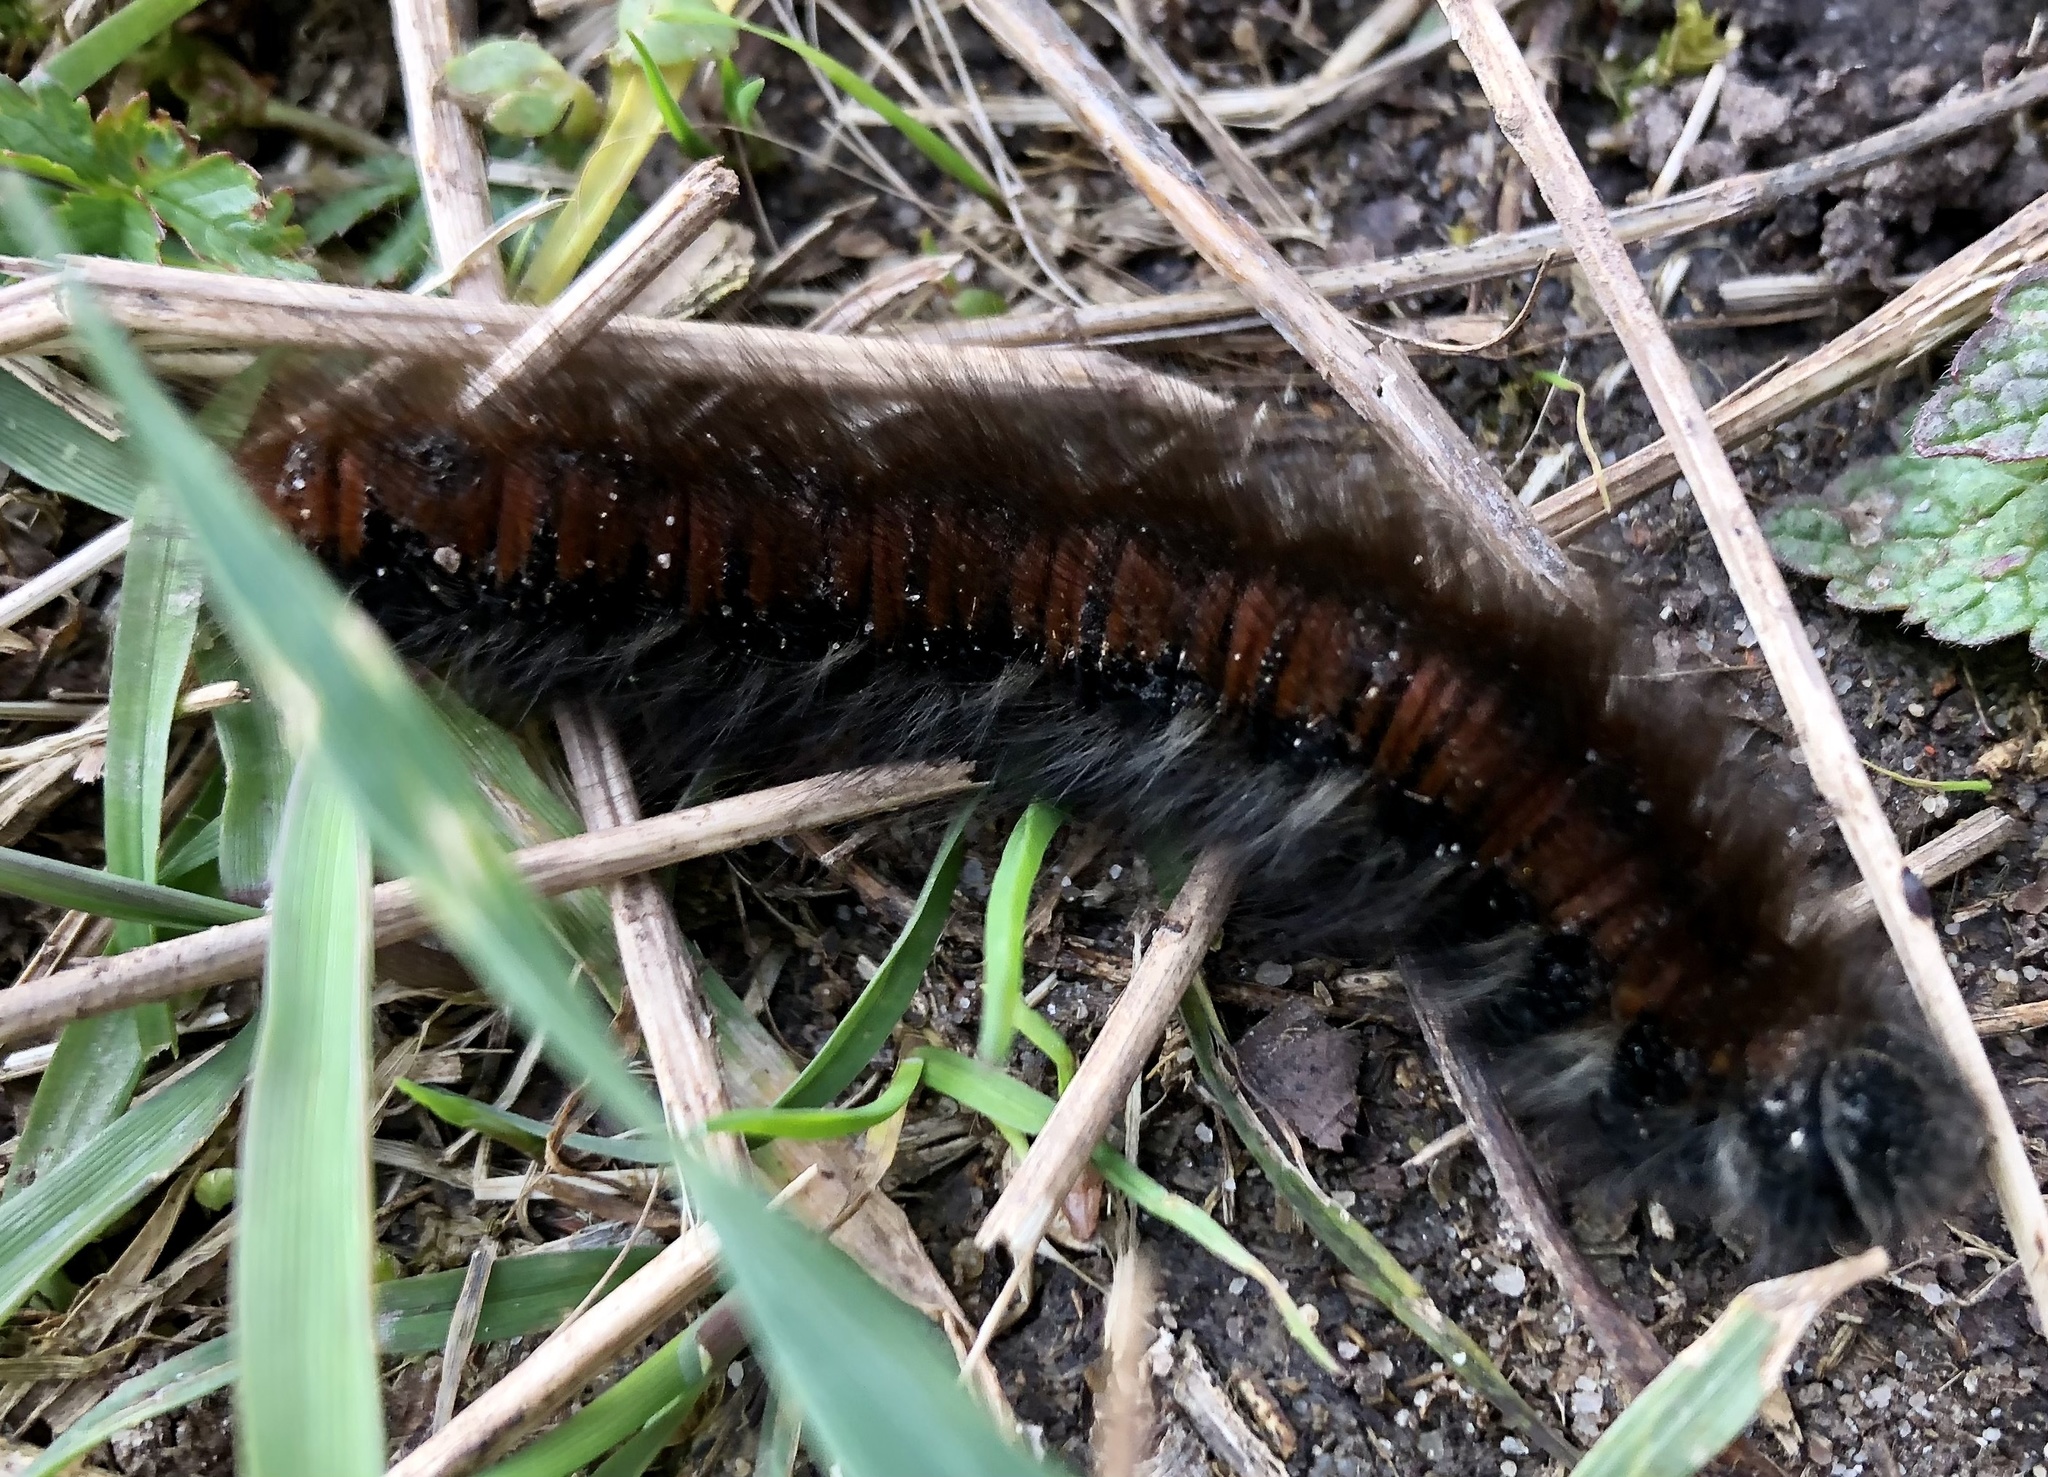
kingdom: Animalia
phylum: Arthropoda
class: Insecta
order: Lepidoptera
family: Lasiocampidae
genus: Macrothylacia
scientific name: Macrothylacia rubi
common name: Fox moth
